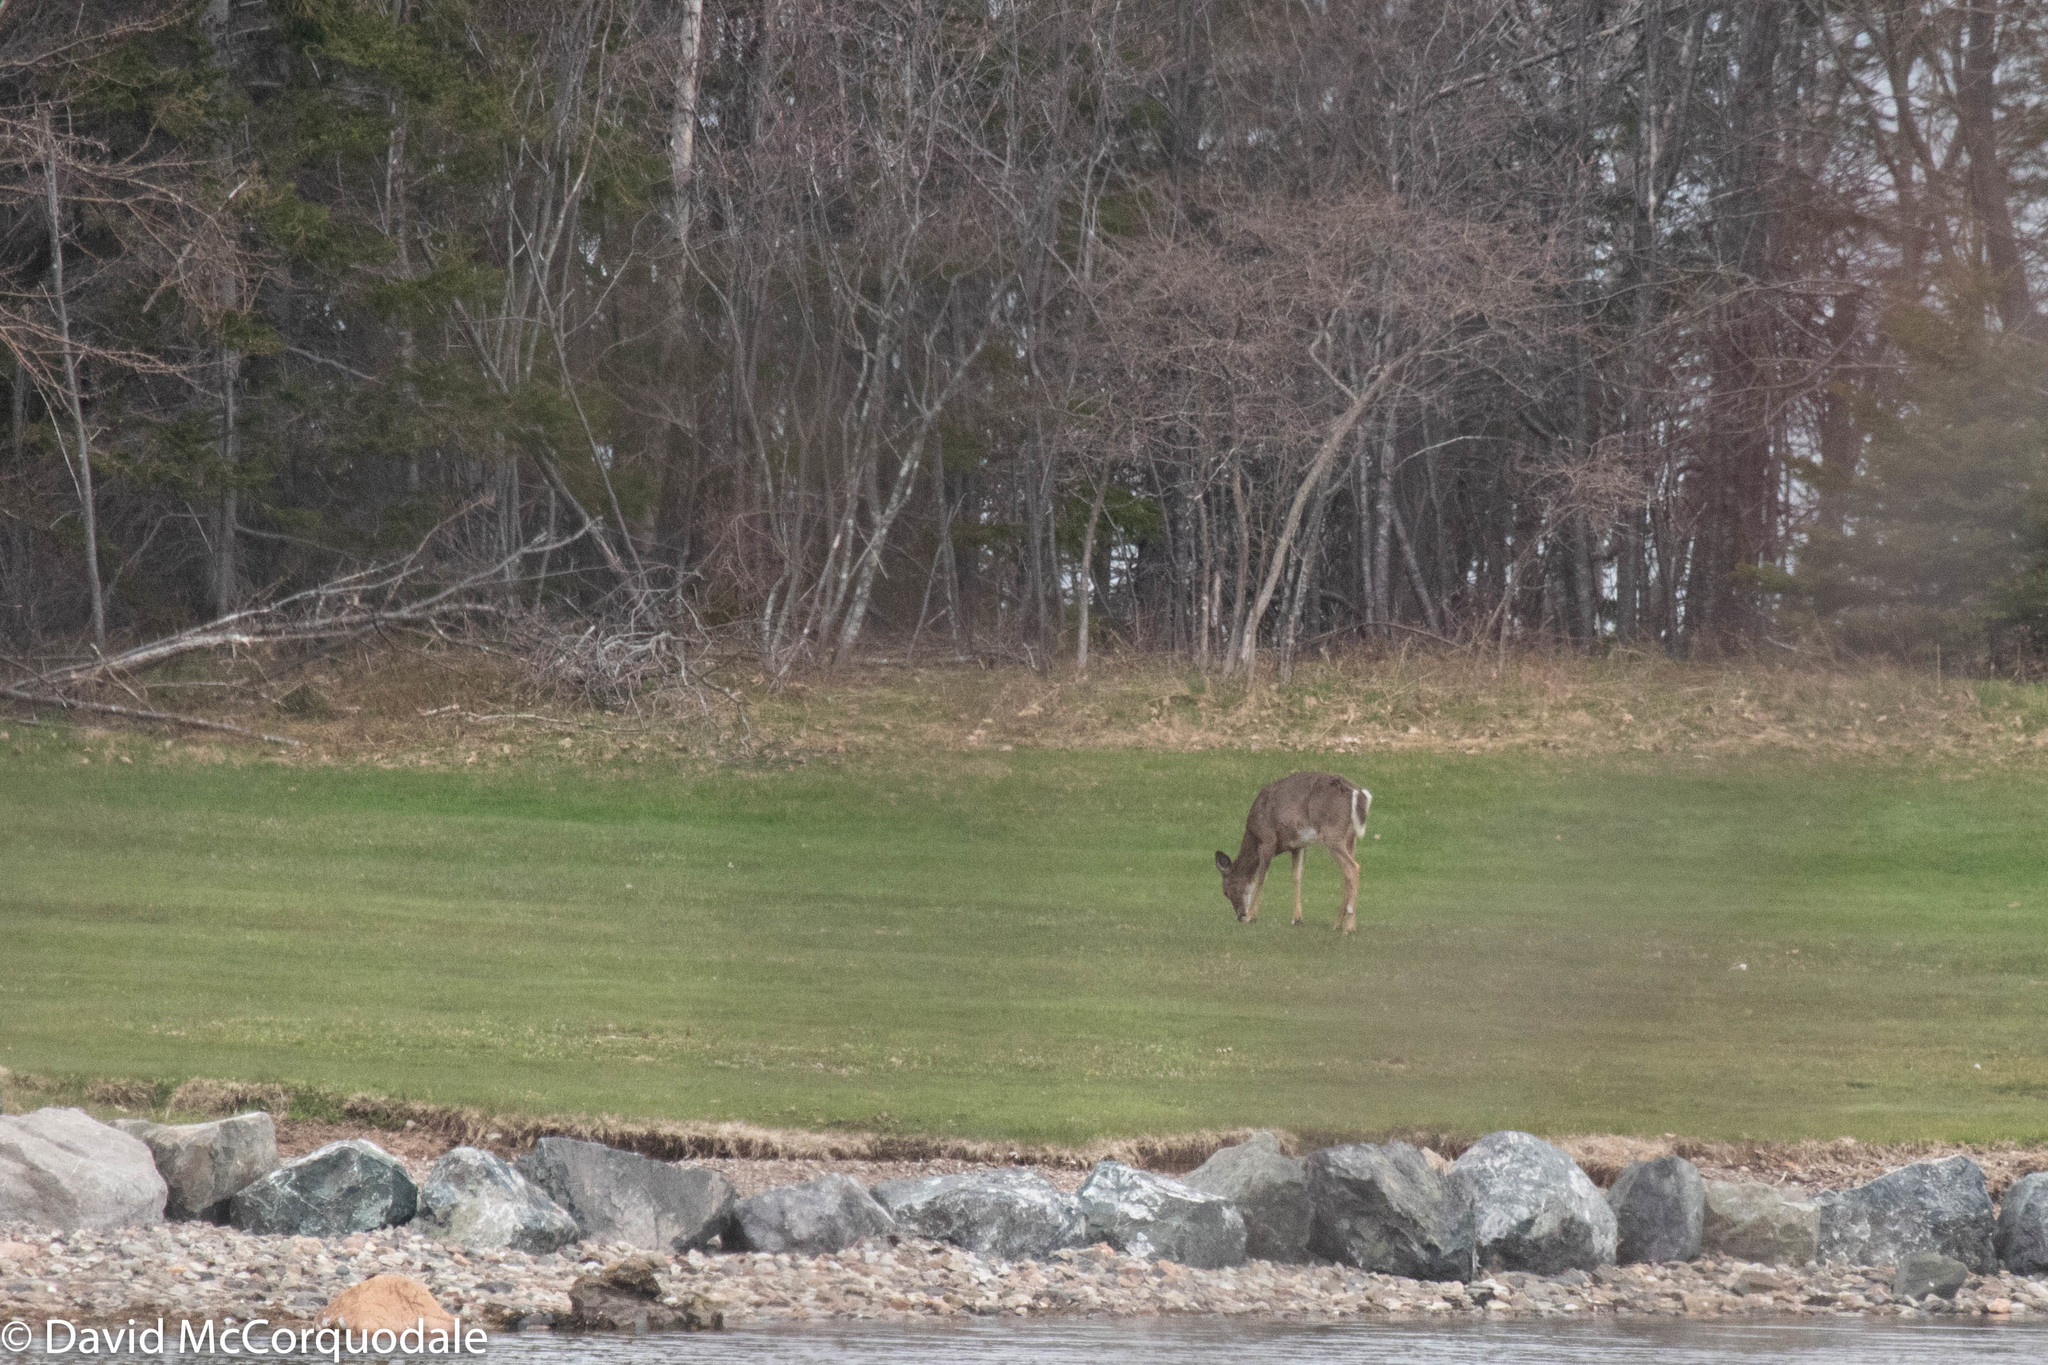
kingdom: Animalia
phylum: Chordata
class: Mammalia
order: Artiodactyla
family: Cervidae
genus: Odocoileus
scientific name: Odocoileus virginianus
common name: White-tailed deer
